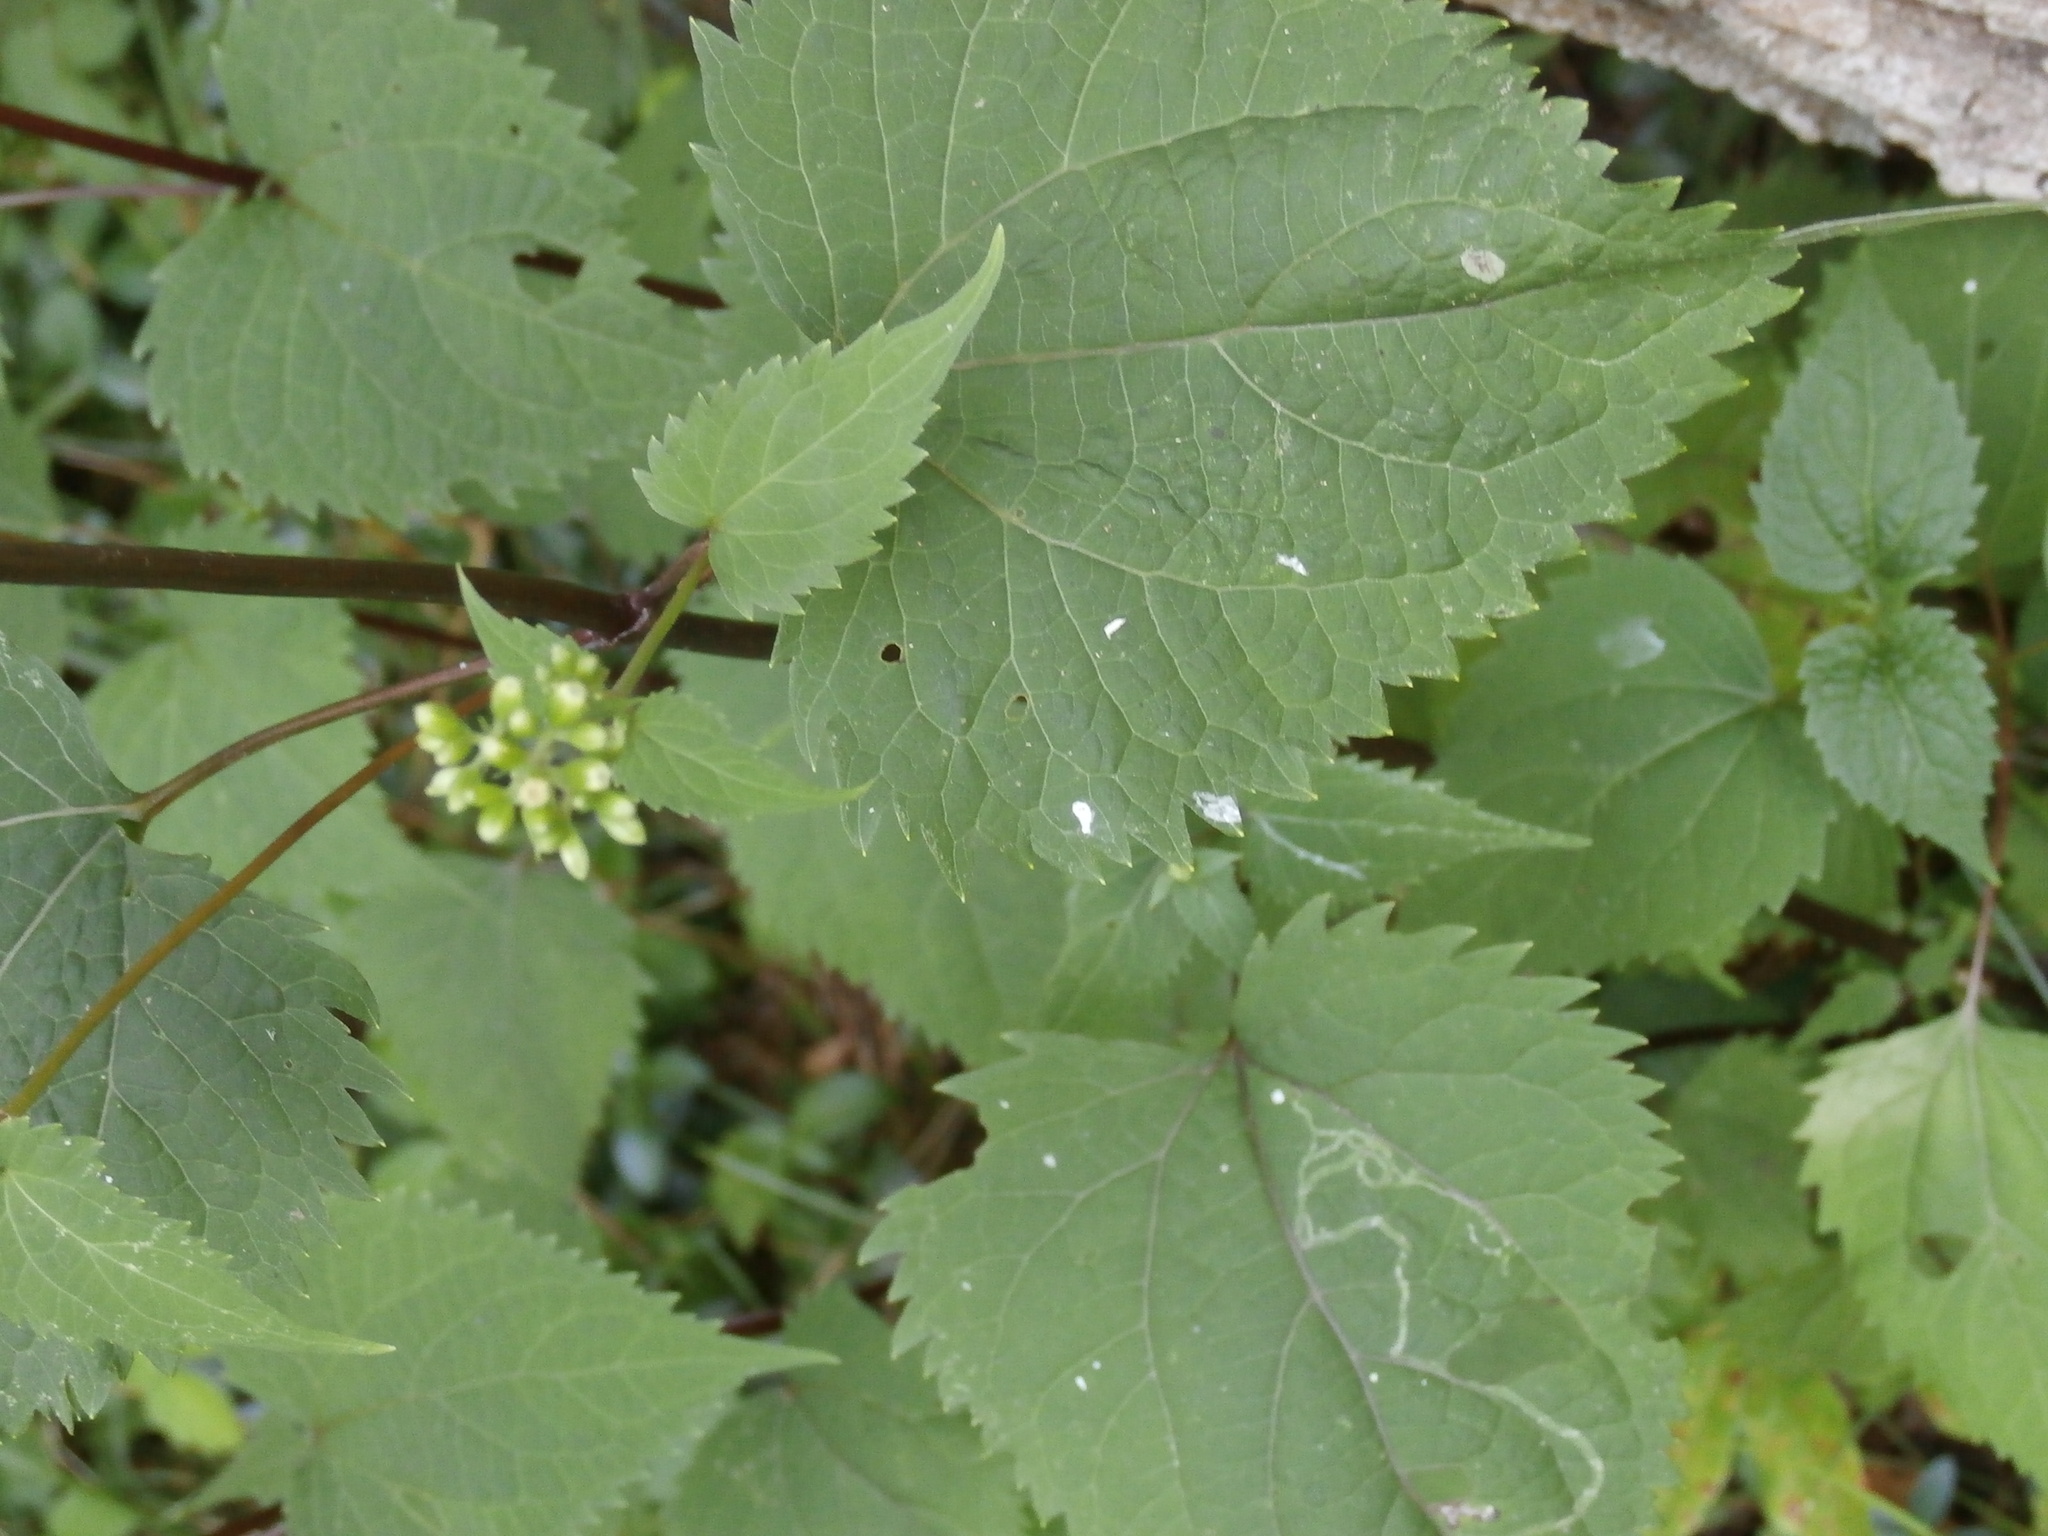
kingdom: Plantae
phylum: Tracheophyta
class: Magnoliopsida
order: Asterales
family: Asteraceae
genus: Ageratina
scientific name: Ageratina altissima
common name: White snakeroot
